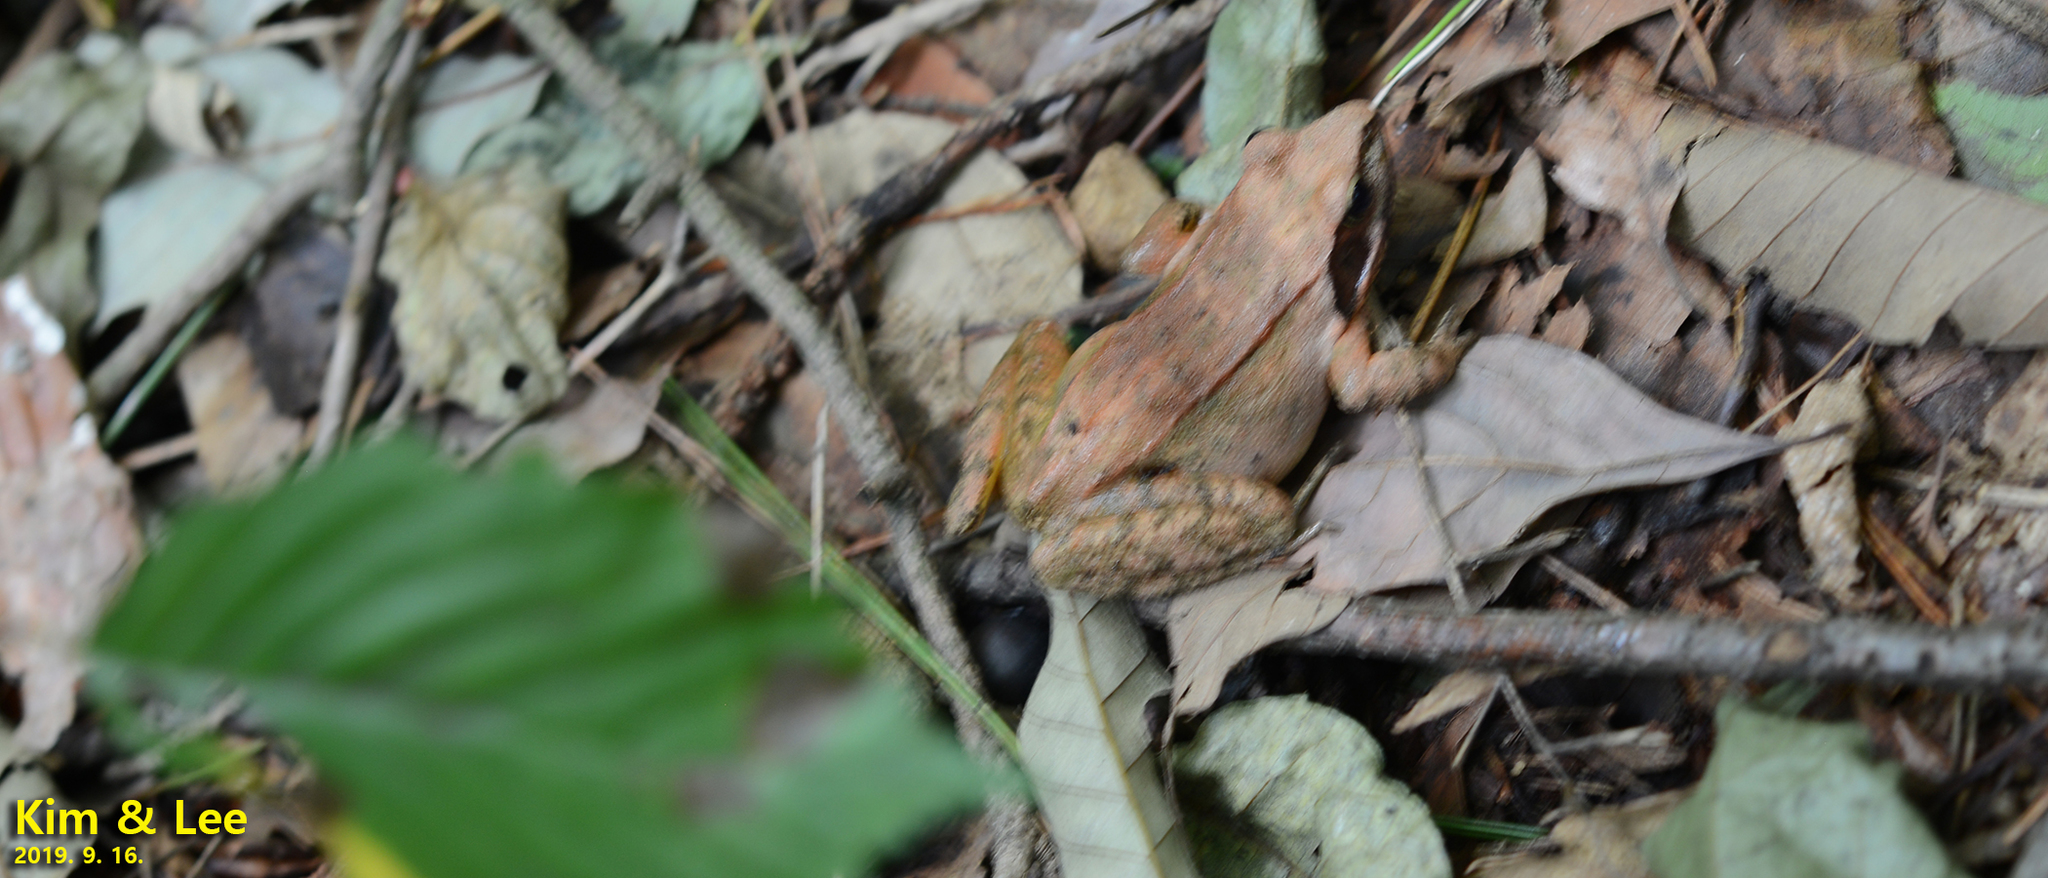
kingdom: Animalia
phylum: Chordata
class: Amphibia
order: Anura
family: Ranidae
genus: Rana
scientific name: Rana uenoi
